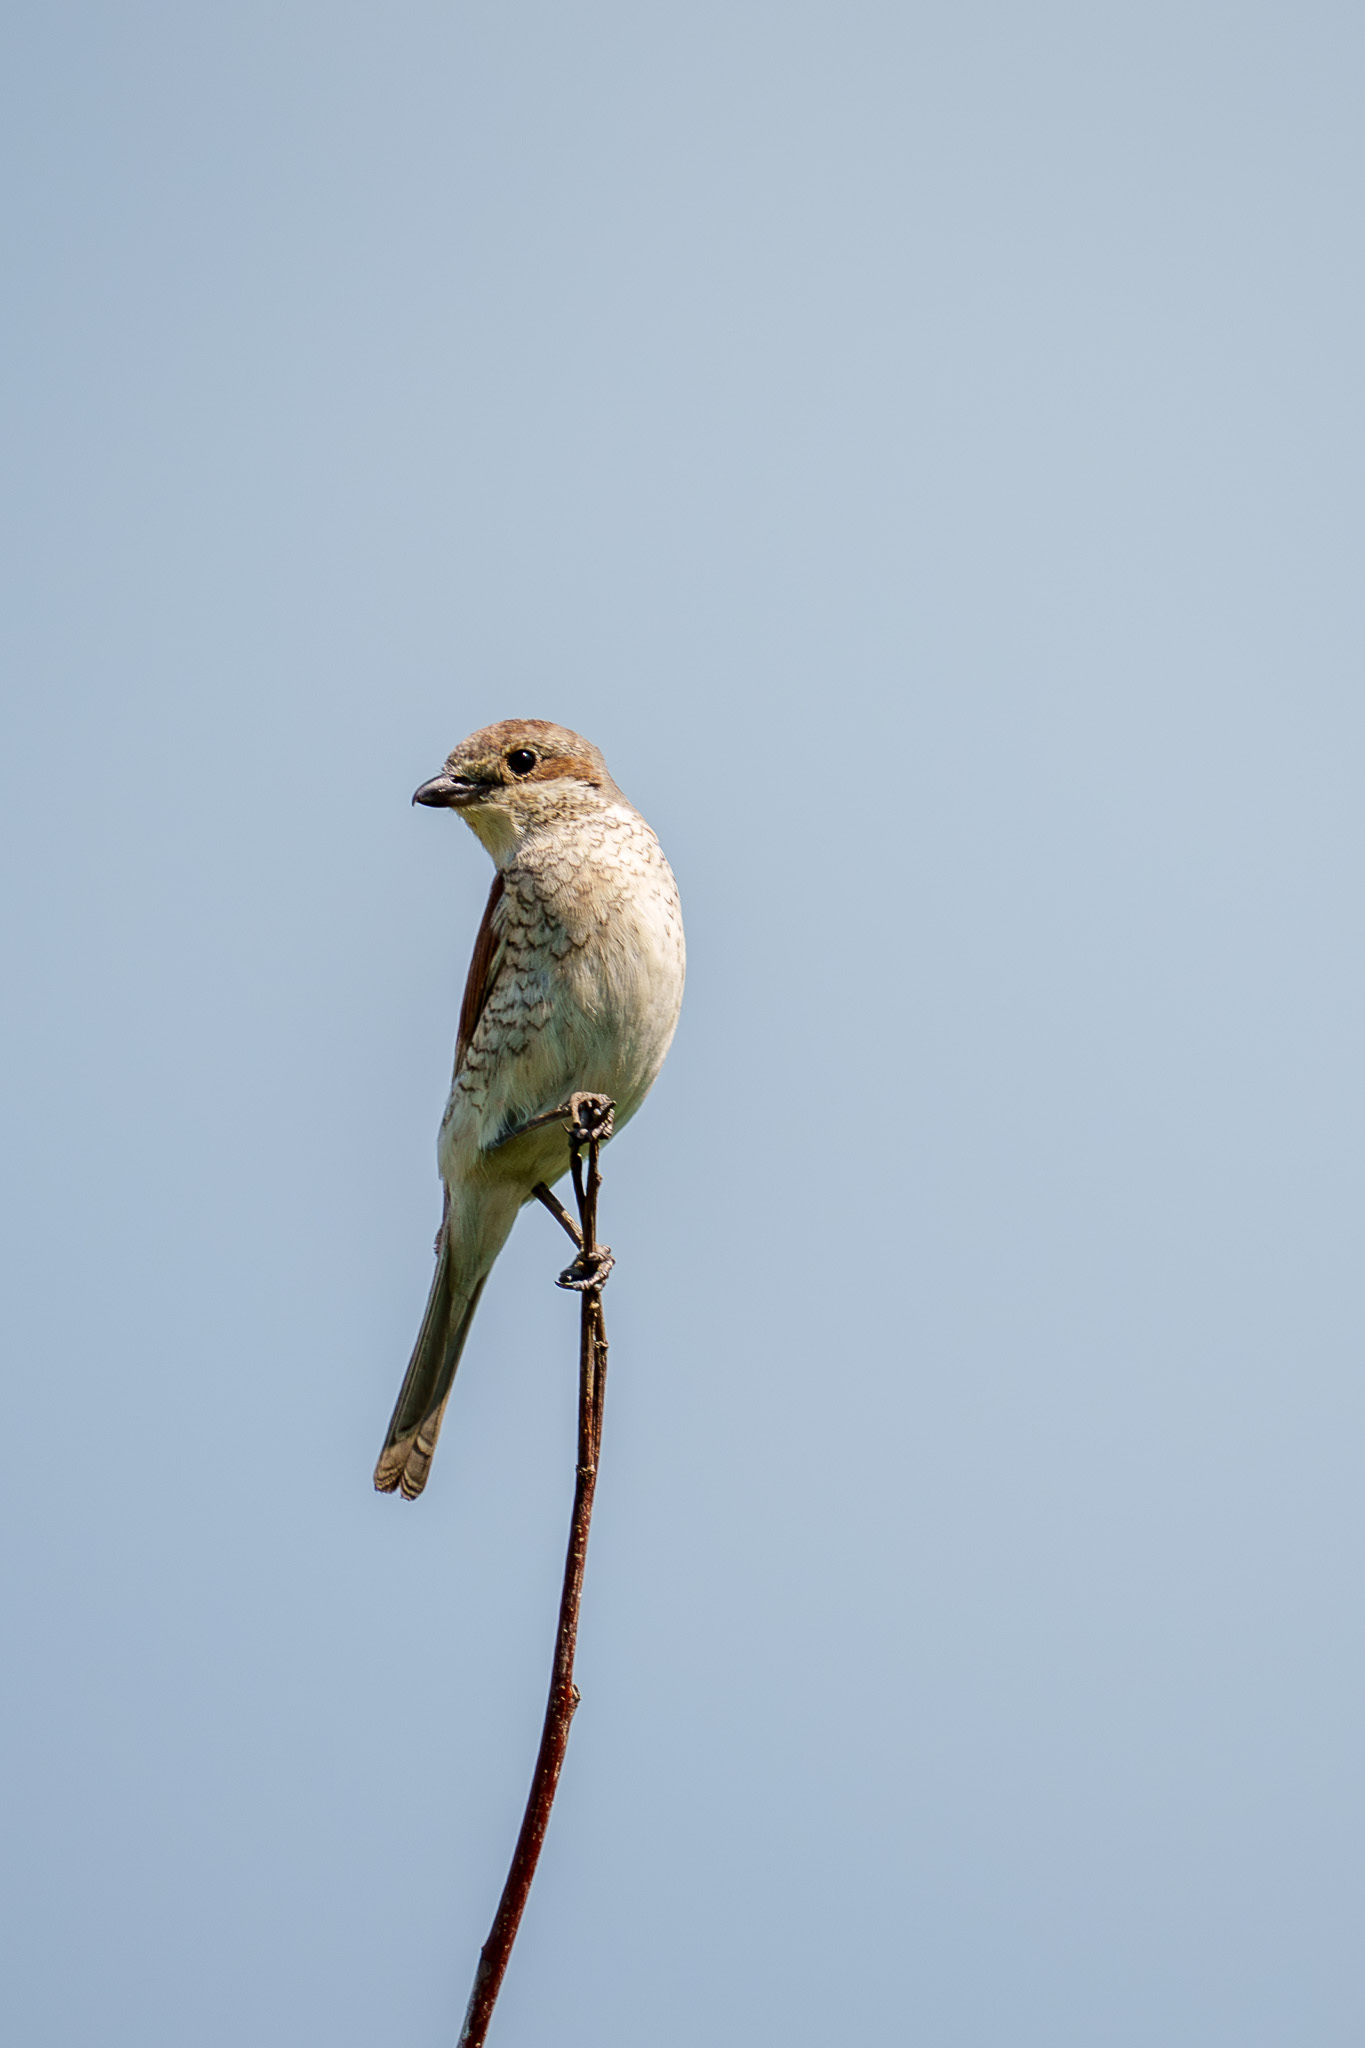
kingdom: Animalia
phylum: Chordata
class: Aves
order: Passeriformes
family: Laniidae
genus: Lanius
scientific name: Lanius collurio
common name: Red-backed shrike
